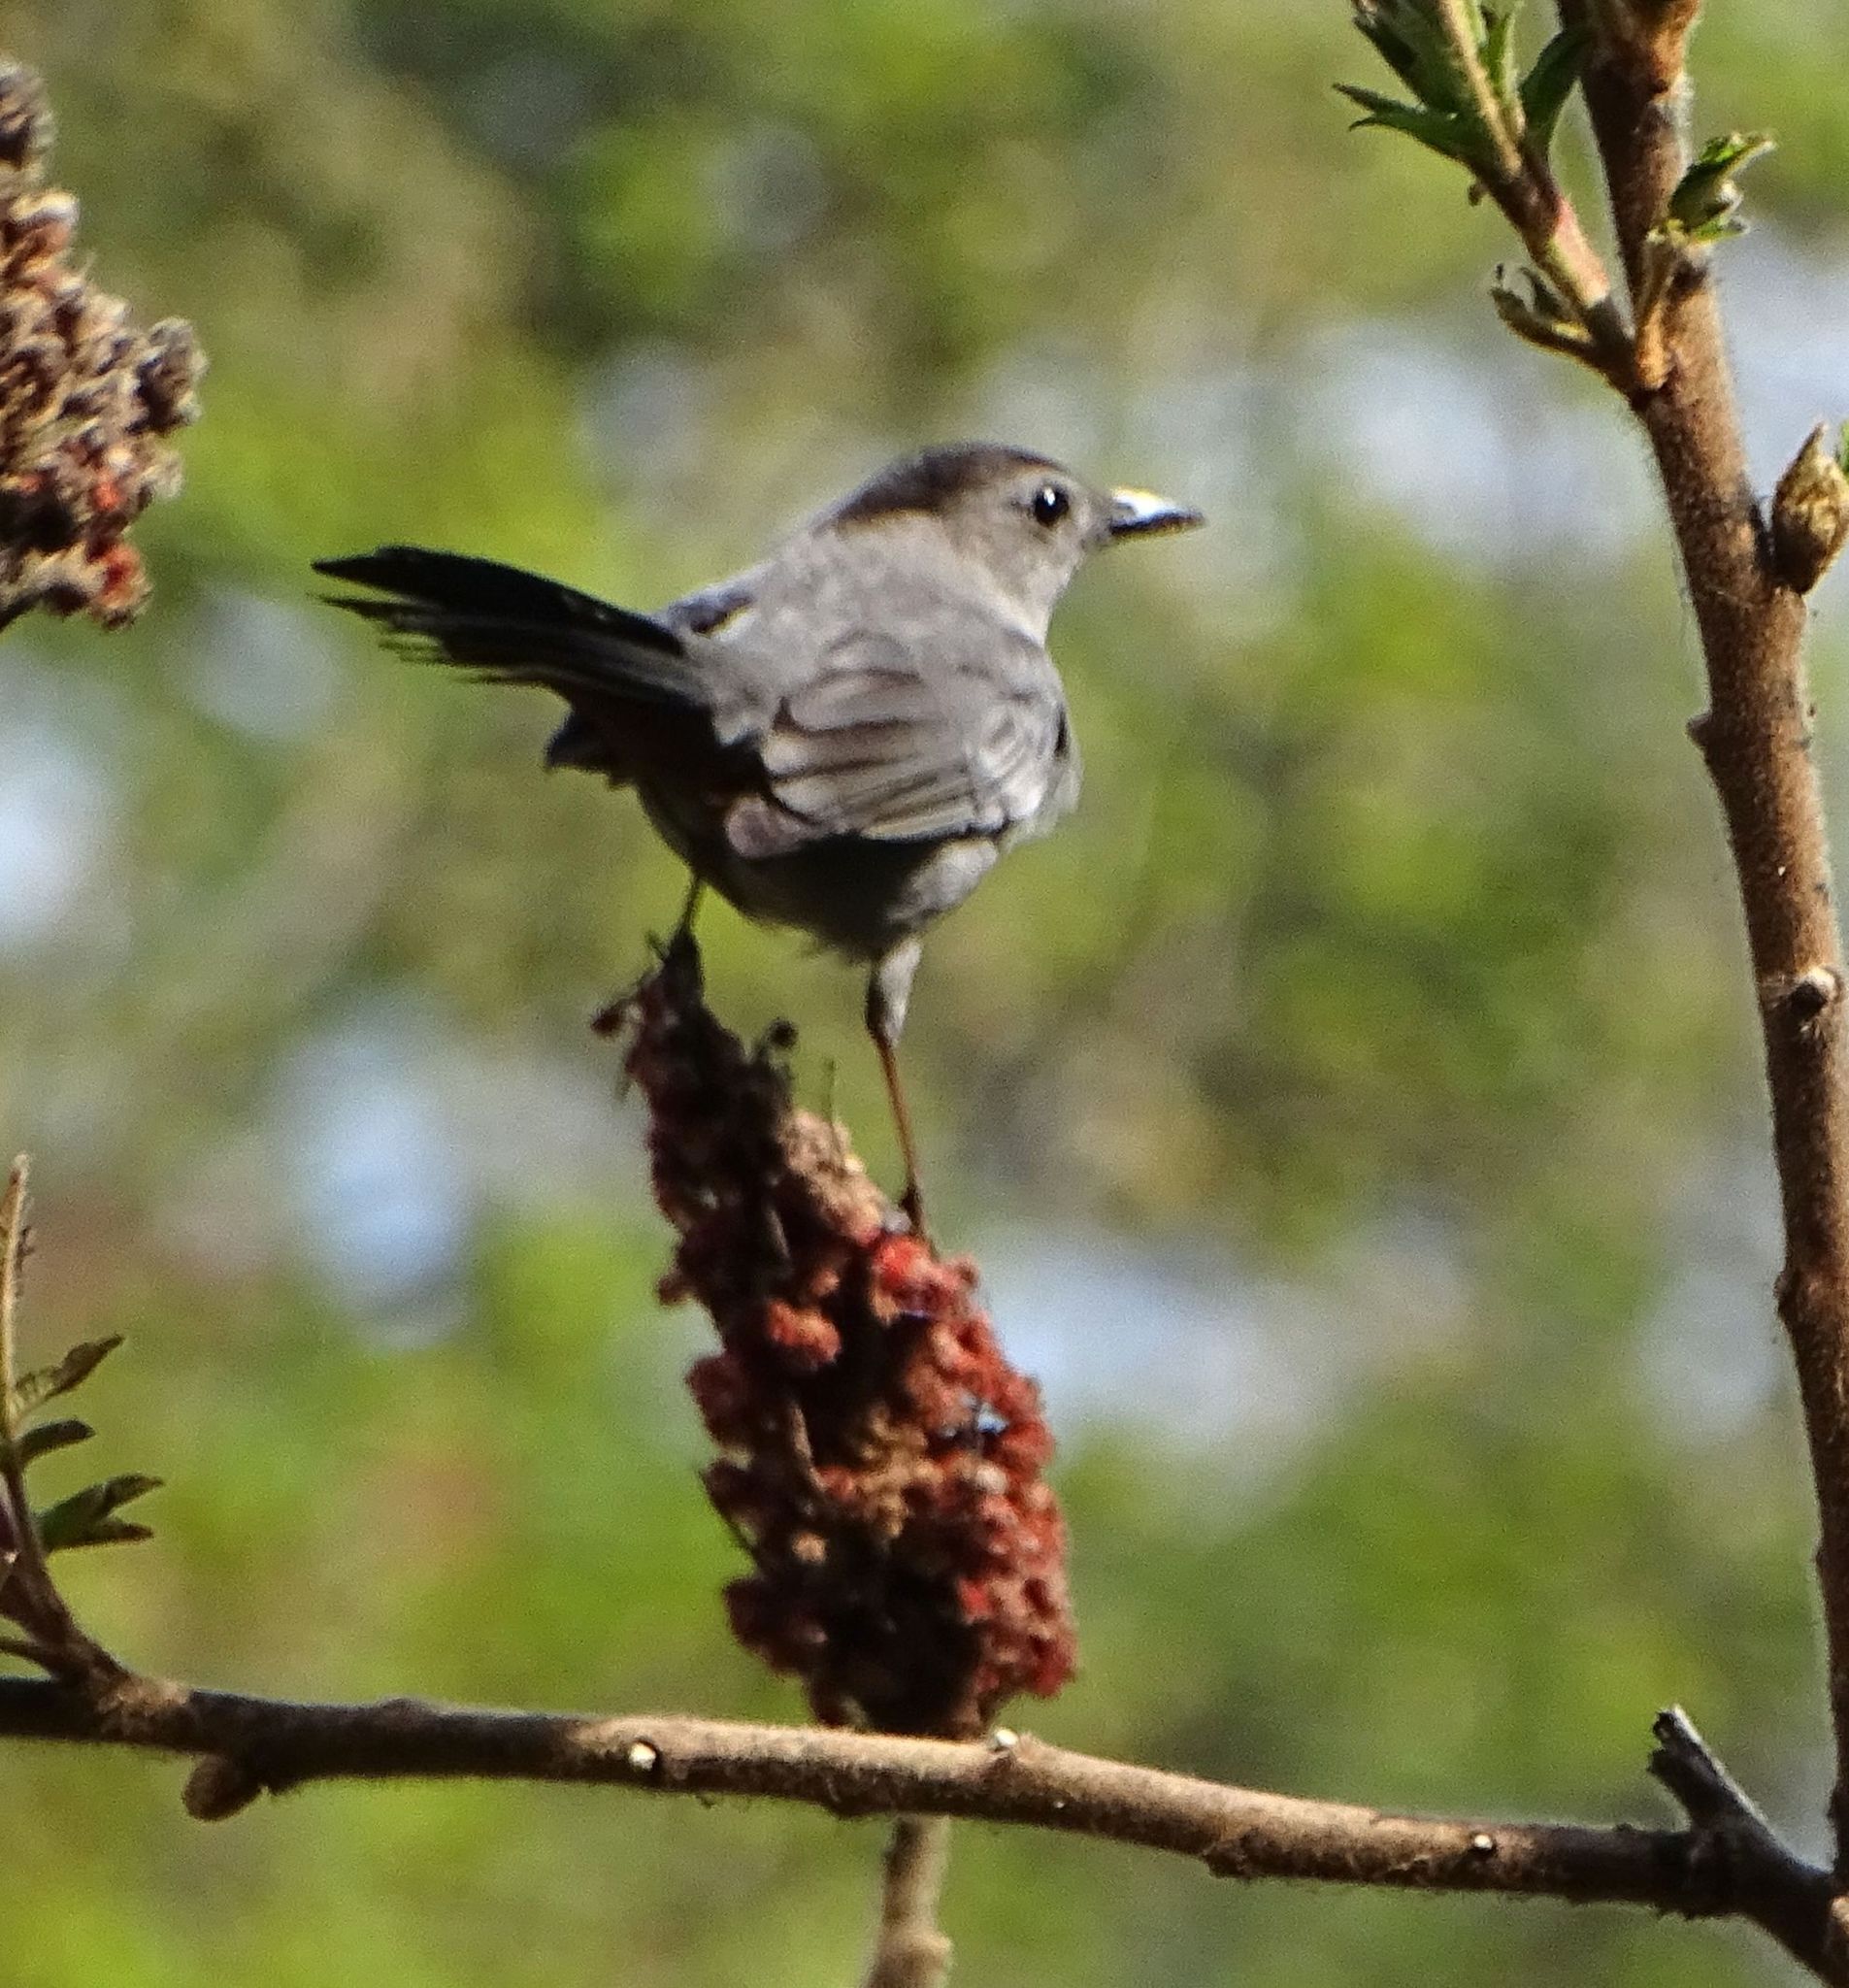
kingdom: Animalia
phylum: Chordata
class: Aves
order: Passeriformes
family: Mimidae
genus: Dumetella
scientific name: Dumetella carolinensis
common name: Gray catbird
